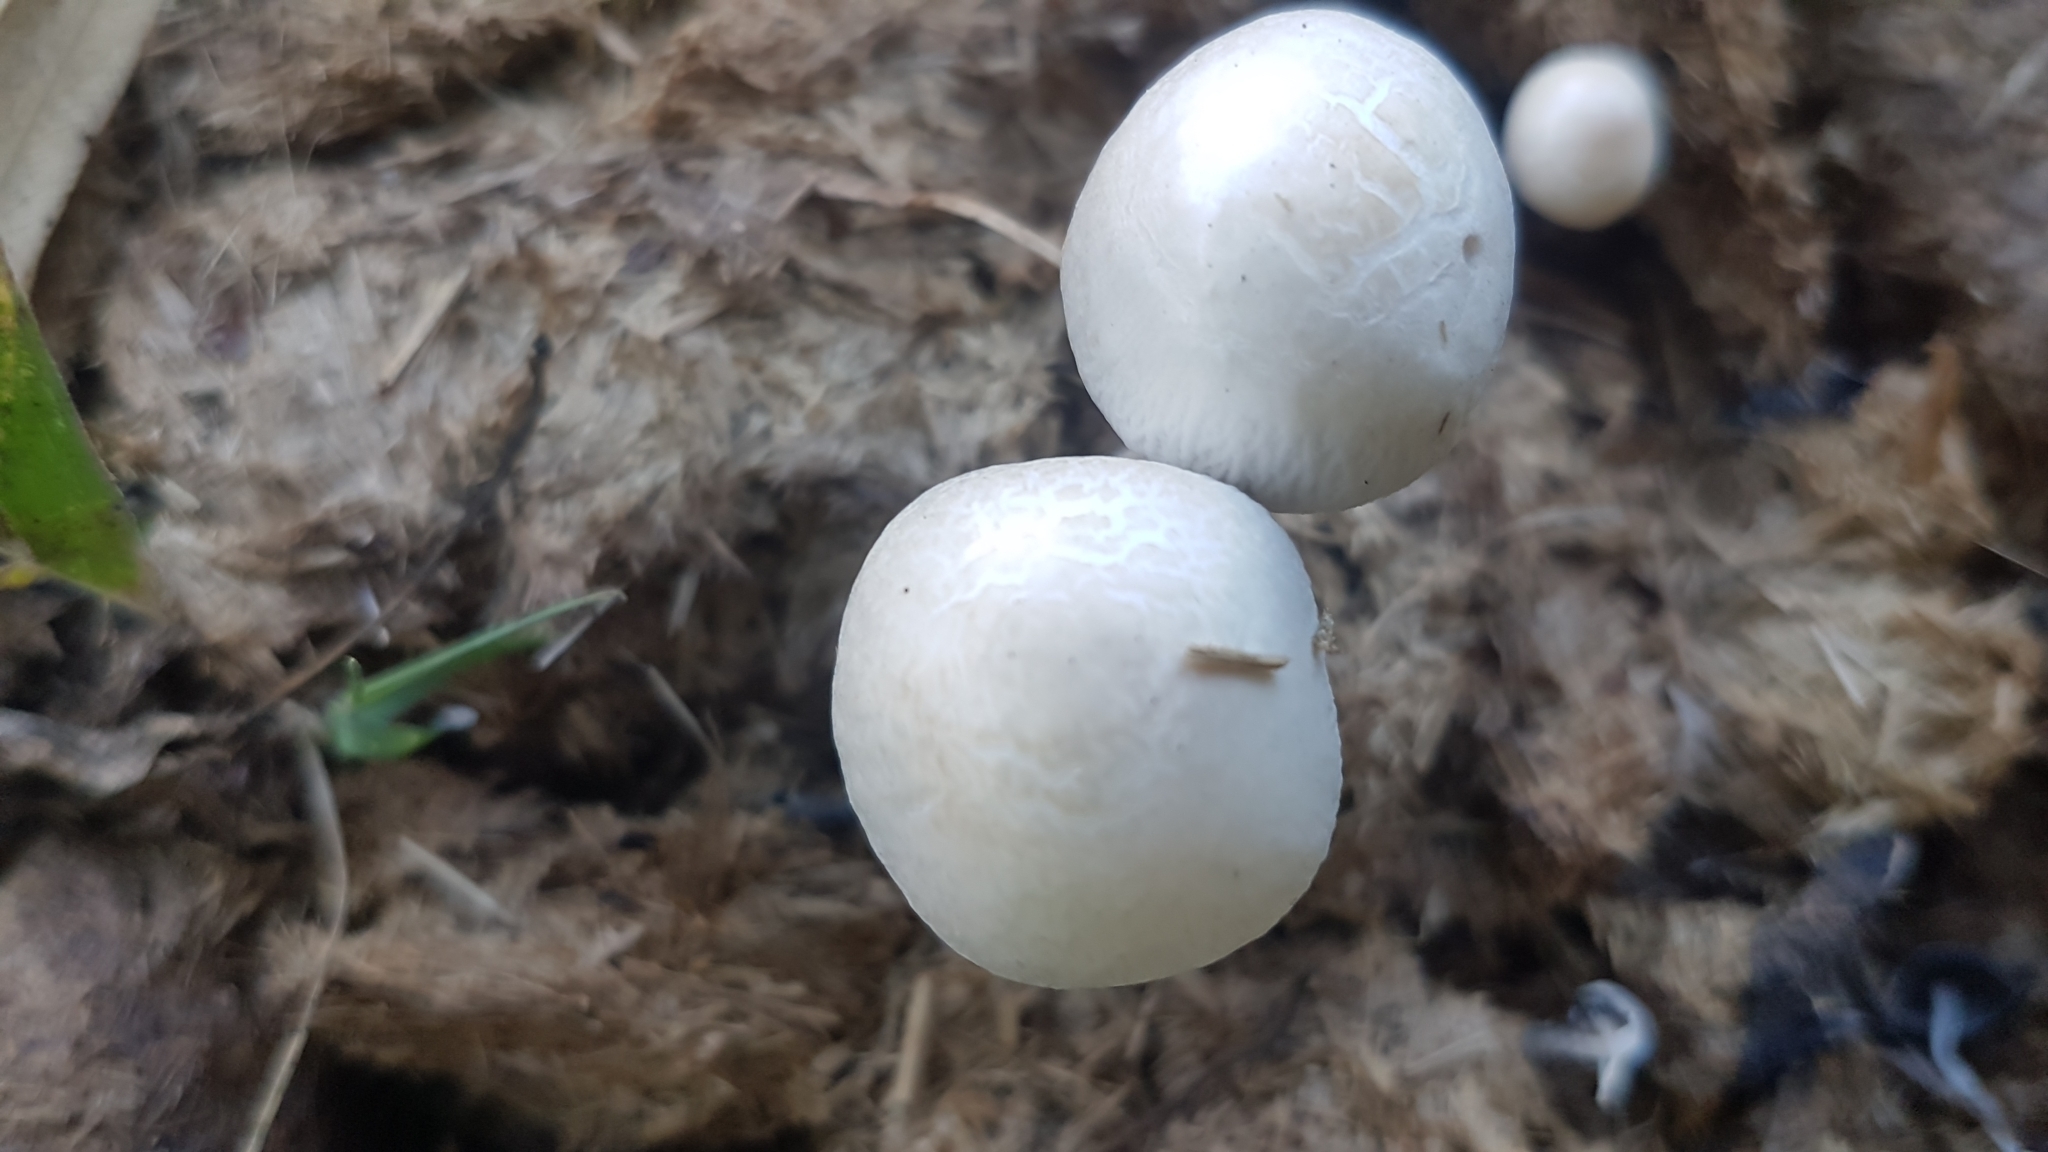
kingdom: Fungi
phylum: Basidiomycota
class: Agaricomycetes
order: Agaricales
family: Bolbitiaceae
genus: Panaeolus
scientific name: Panaeolus antillarum
